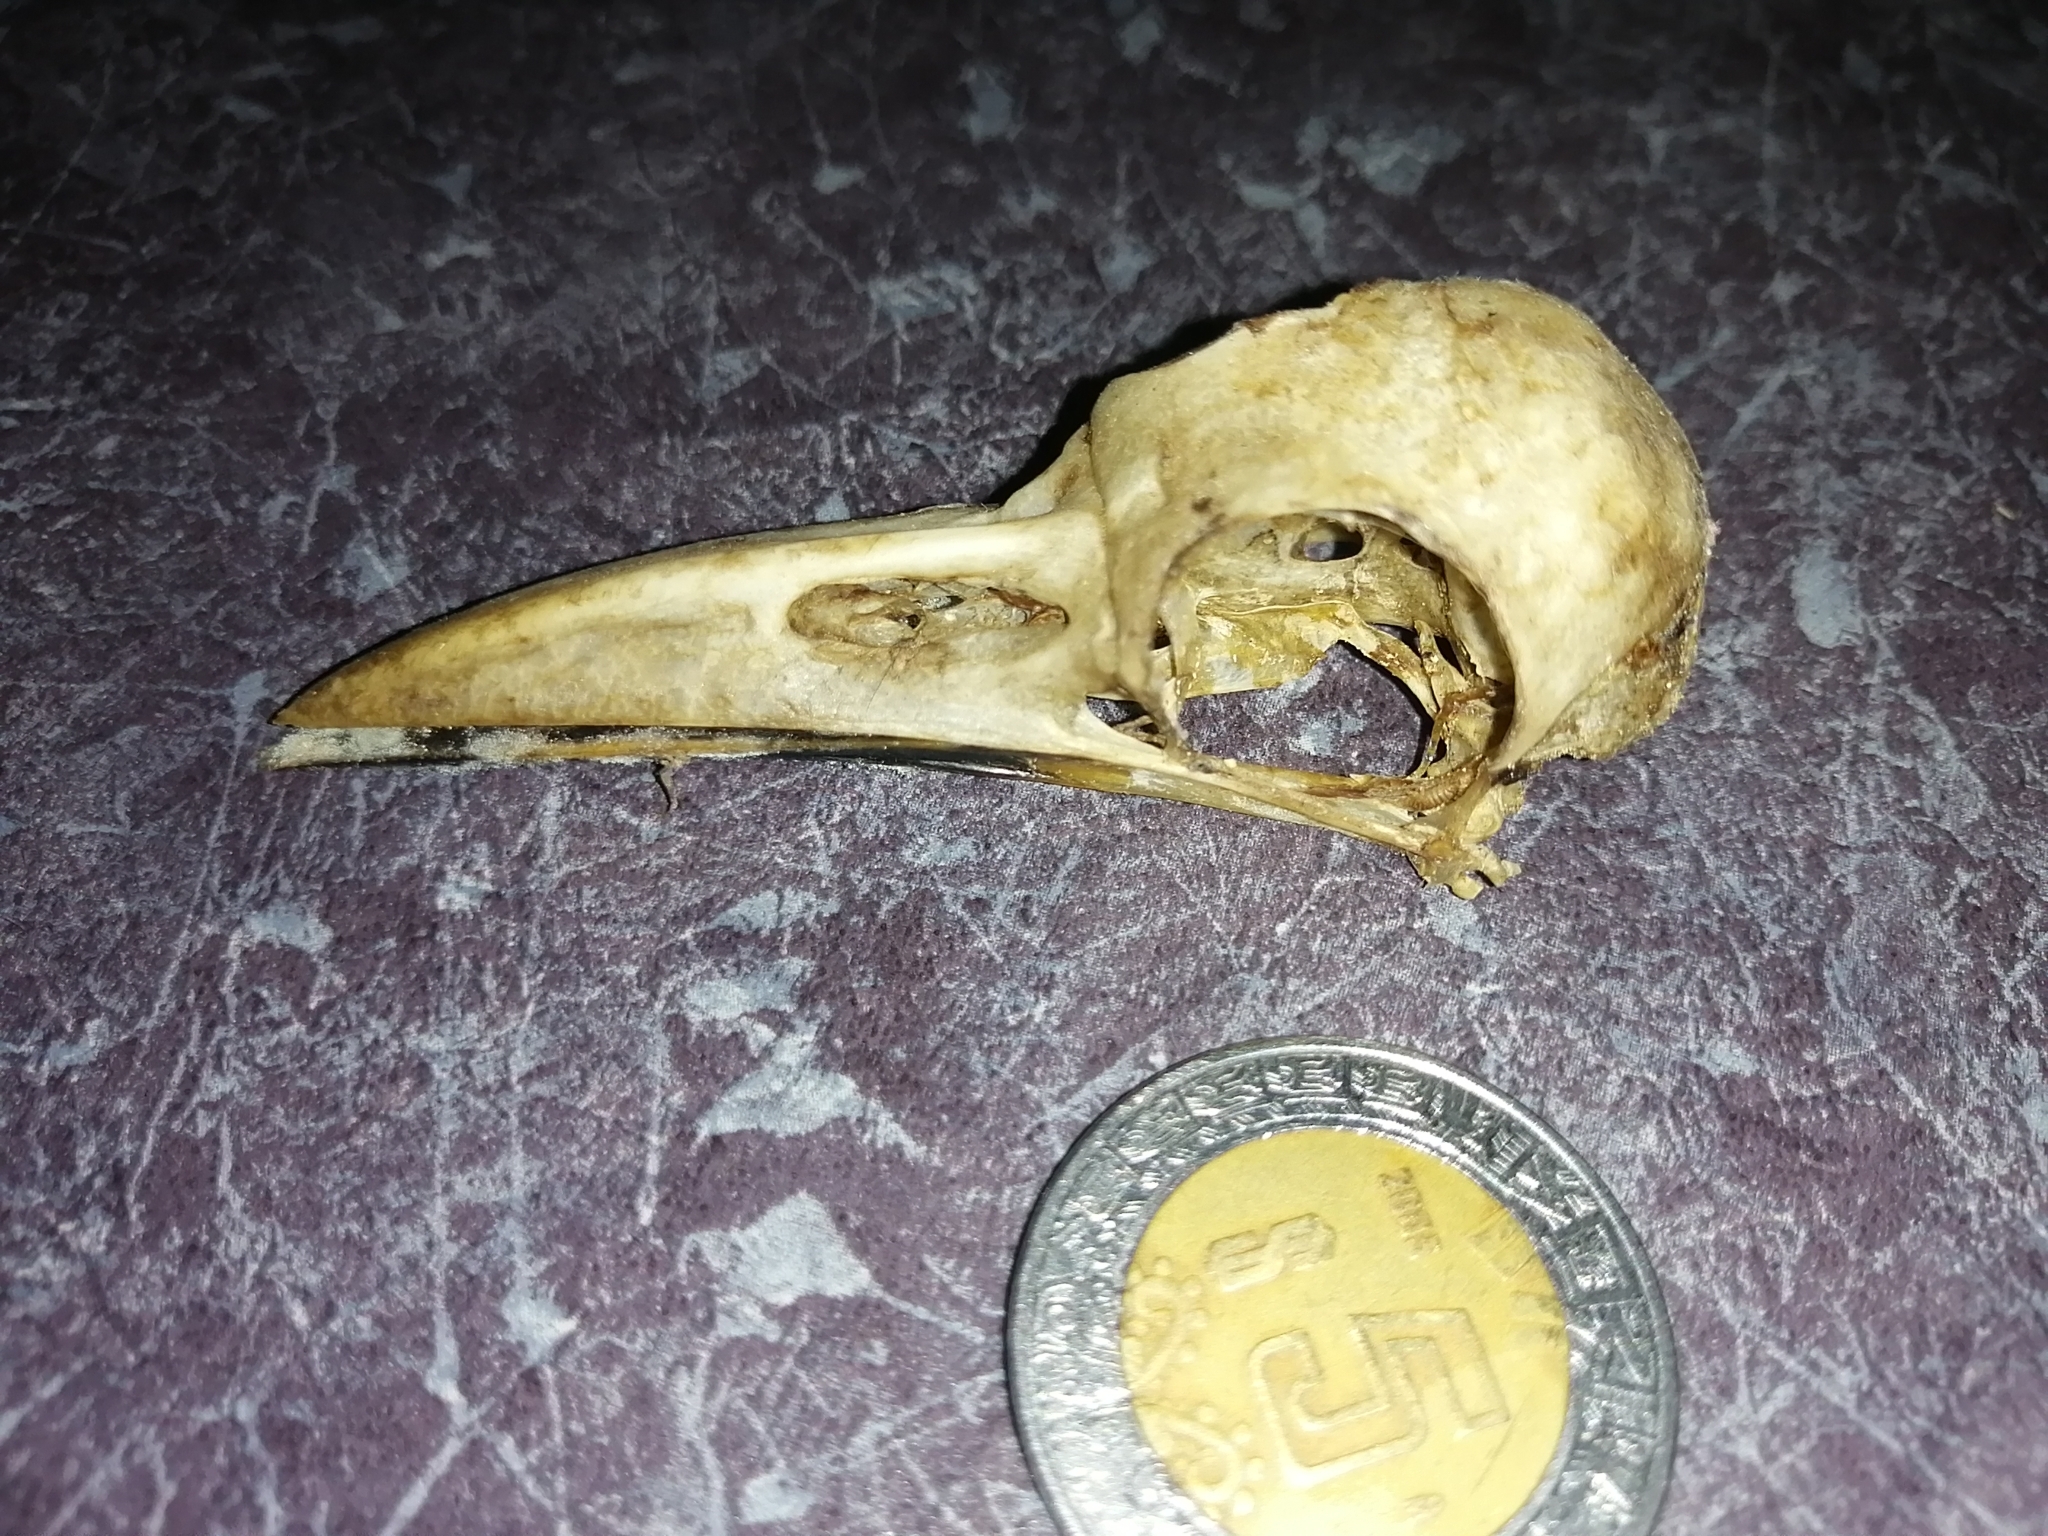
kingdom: Animalia
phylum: Chordata
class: Aves
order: Coraciiformes
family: Momotidae
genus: Eumomota
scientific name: Eumomota superciliosa
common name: Turquoise-browed motmot
